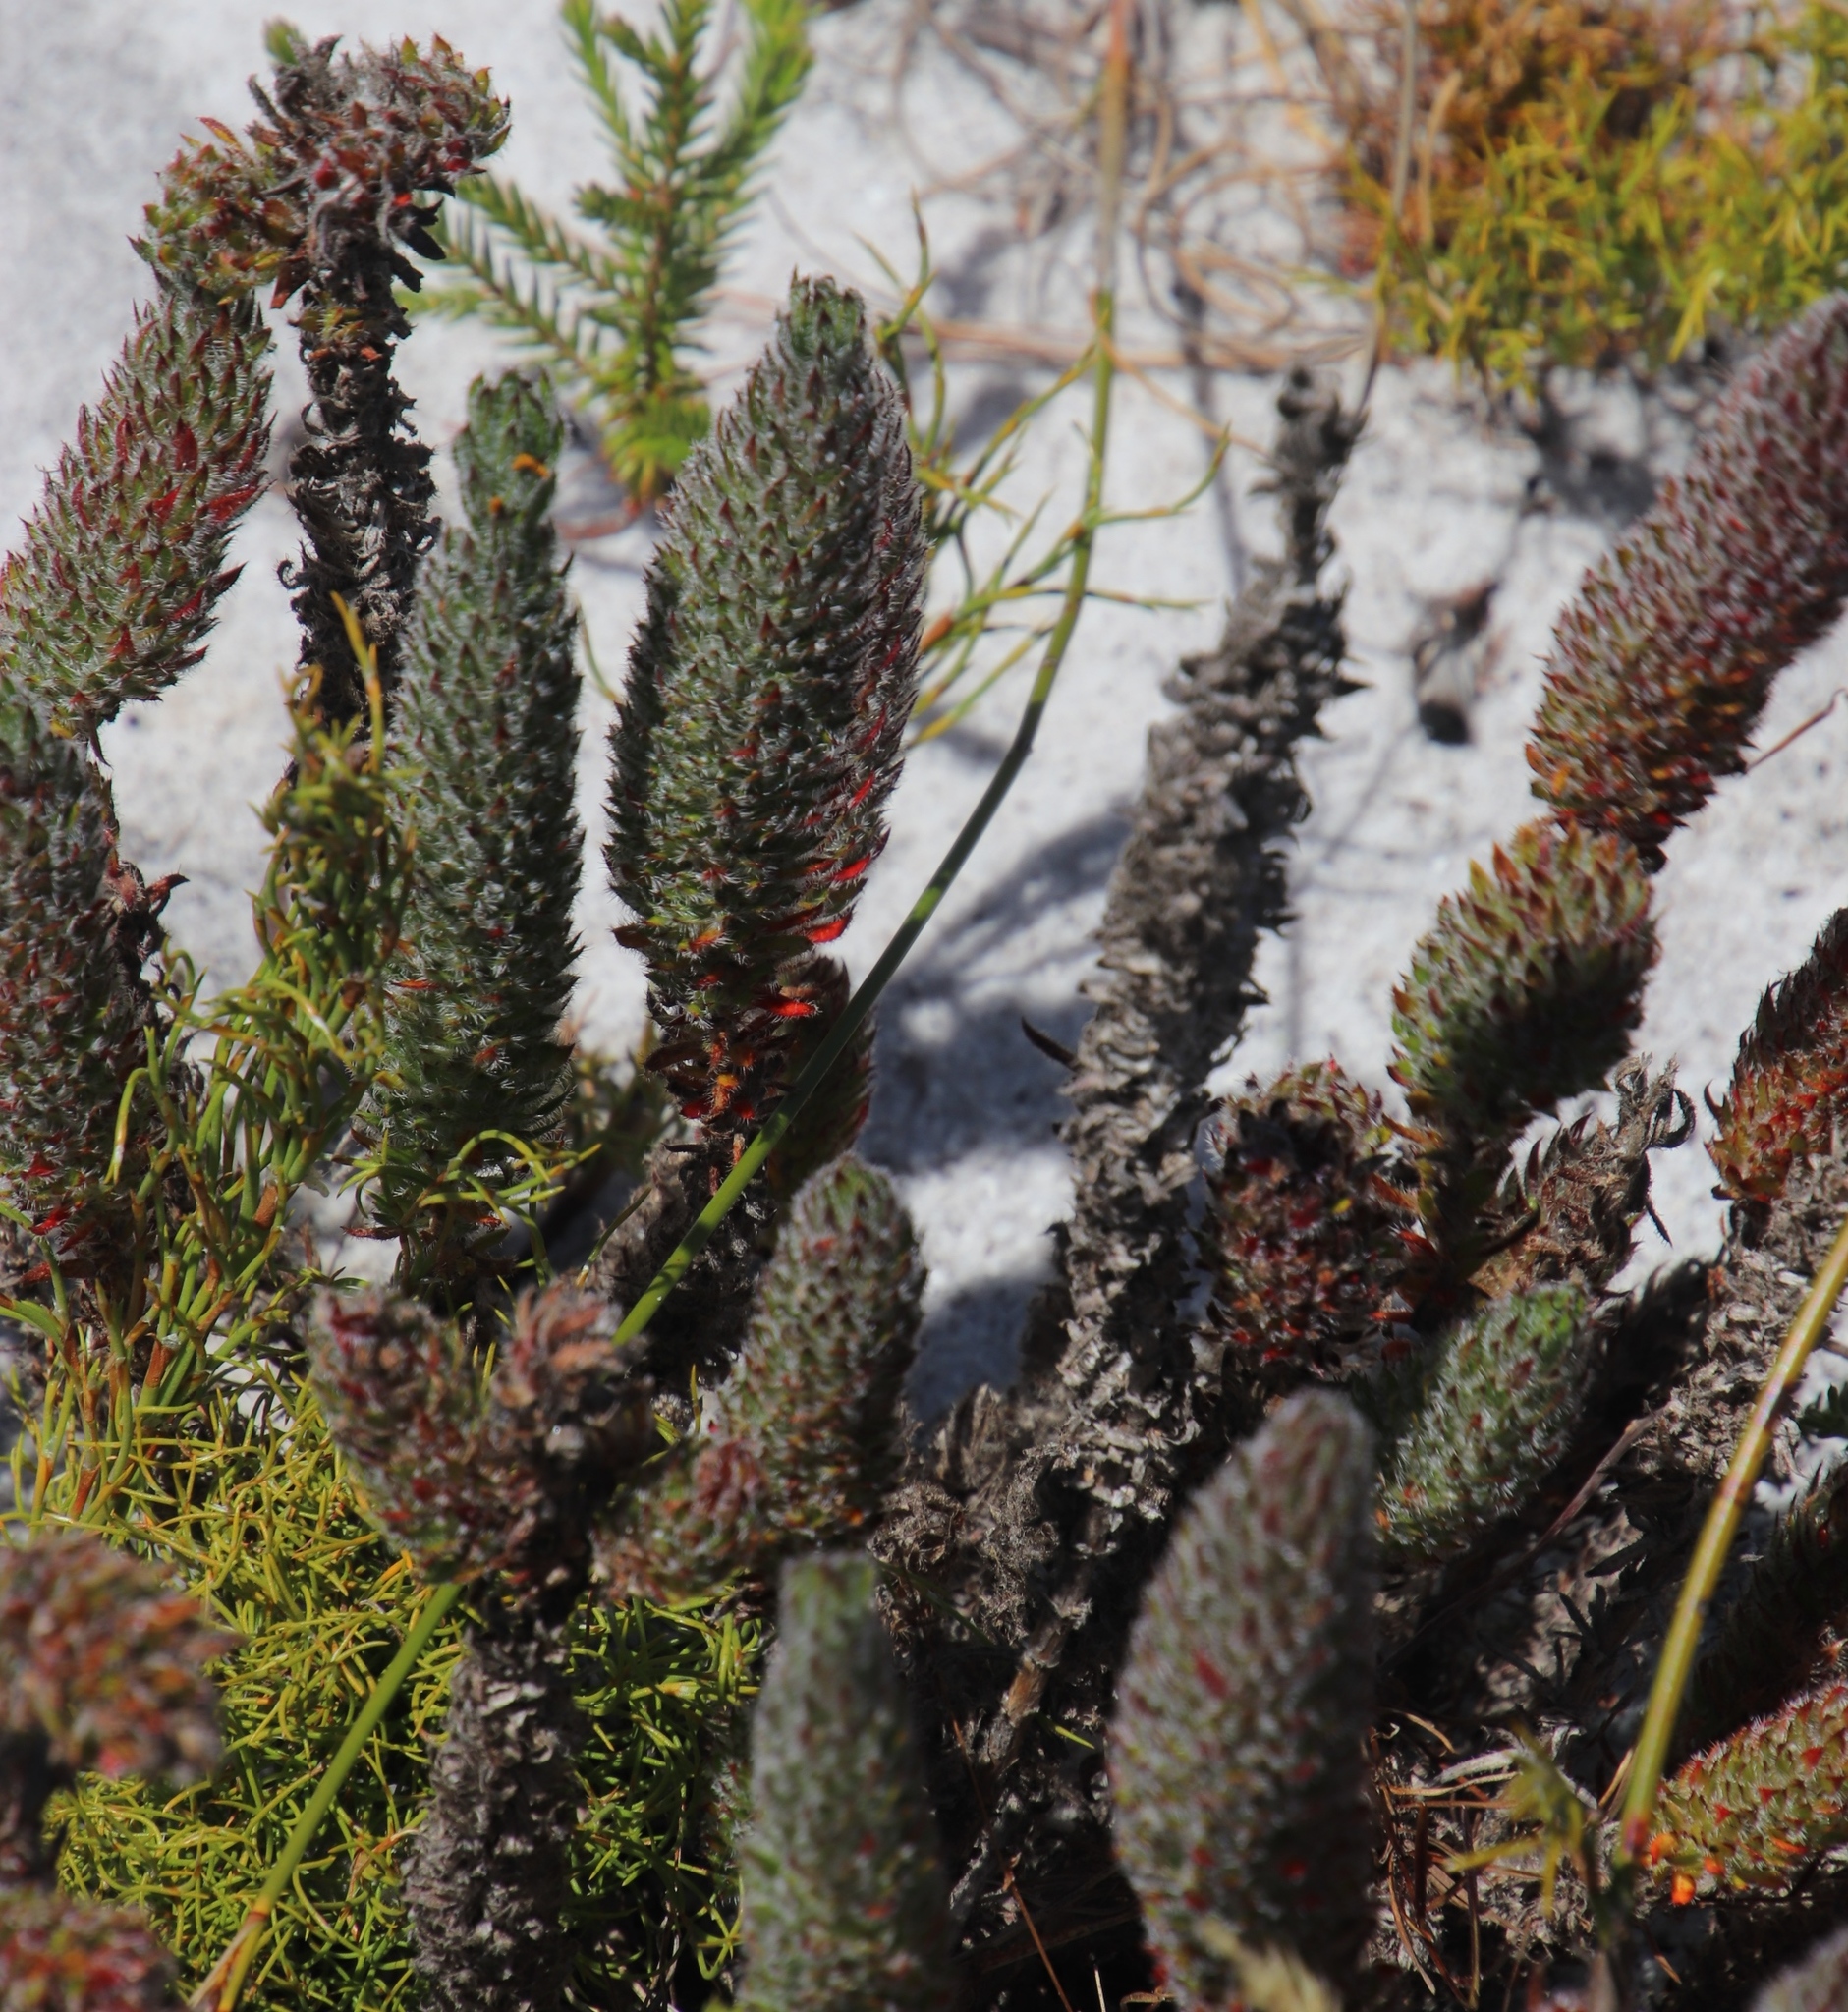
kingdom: Plantae
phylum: Tracheophyta
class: Magnoliopsida
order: Gentianales
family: Rubiaceae
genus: Anthospermum
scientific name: Anthospermum bergianum
